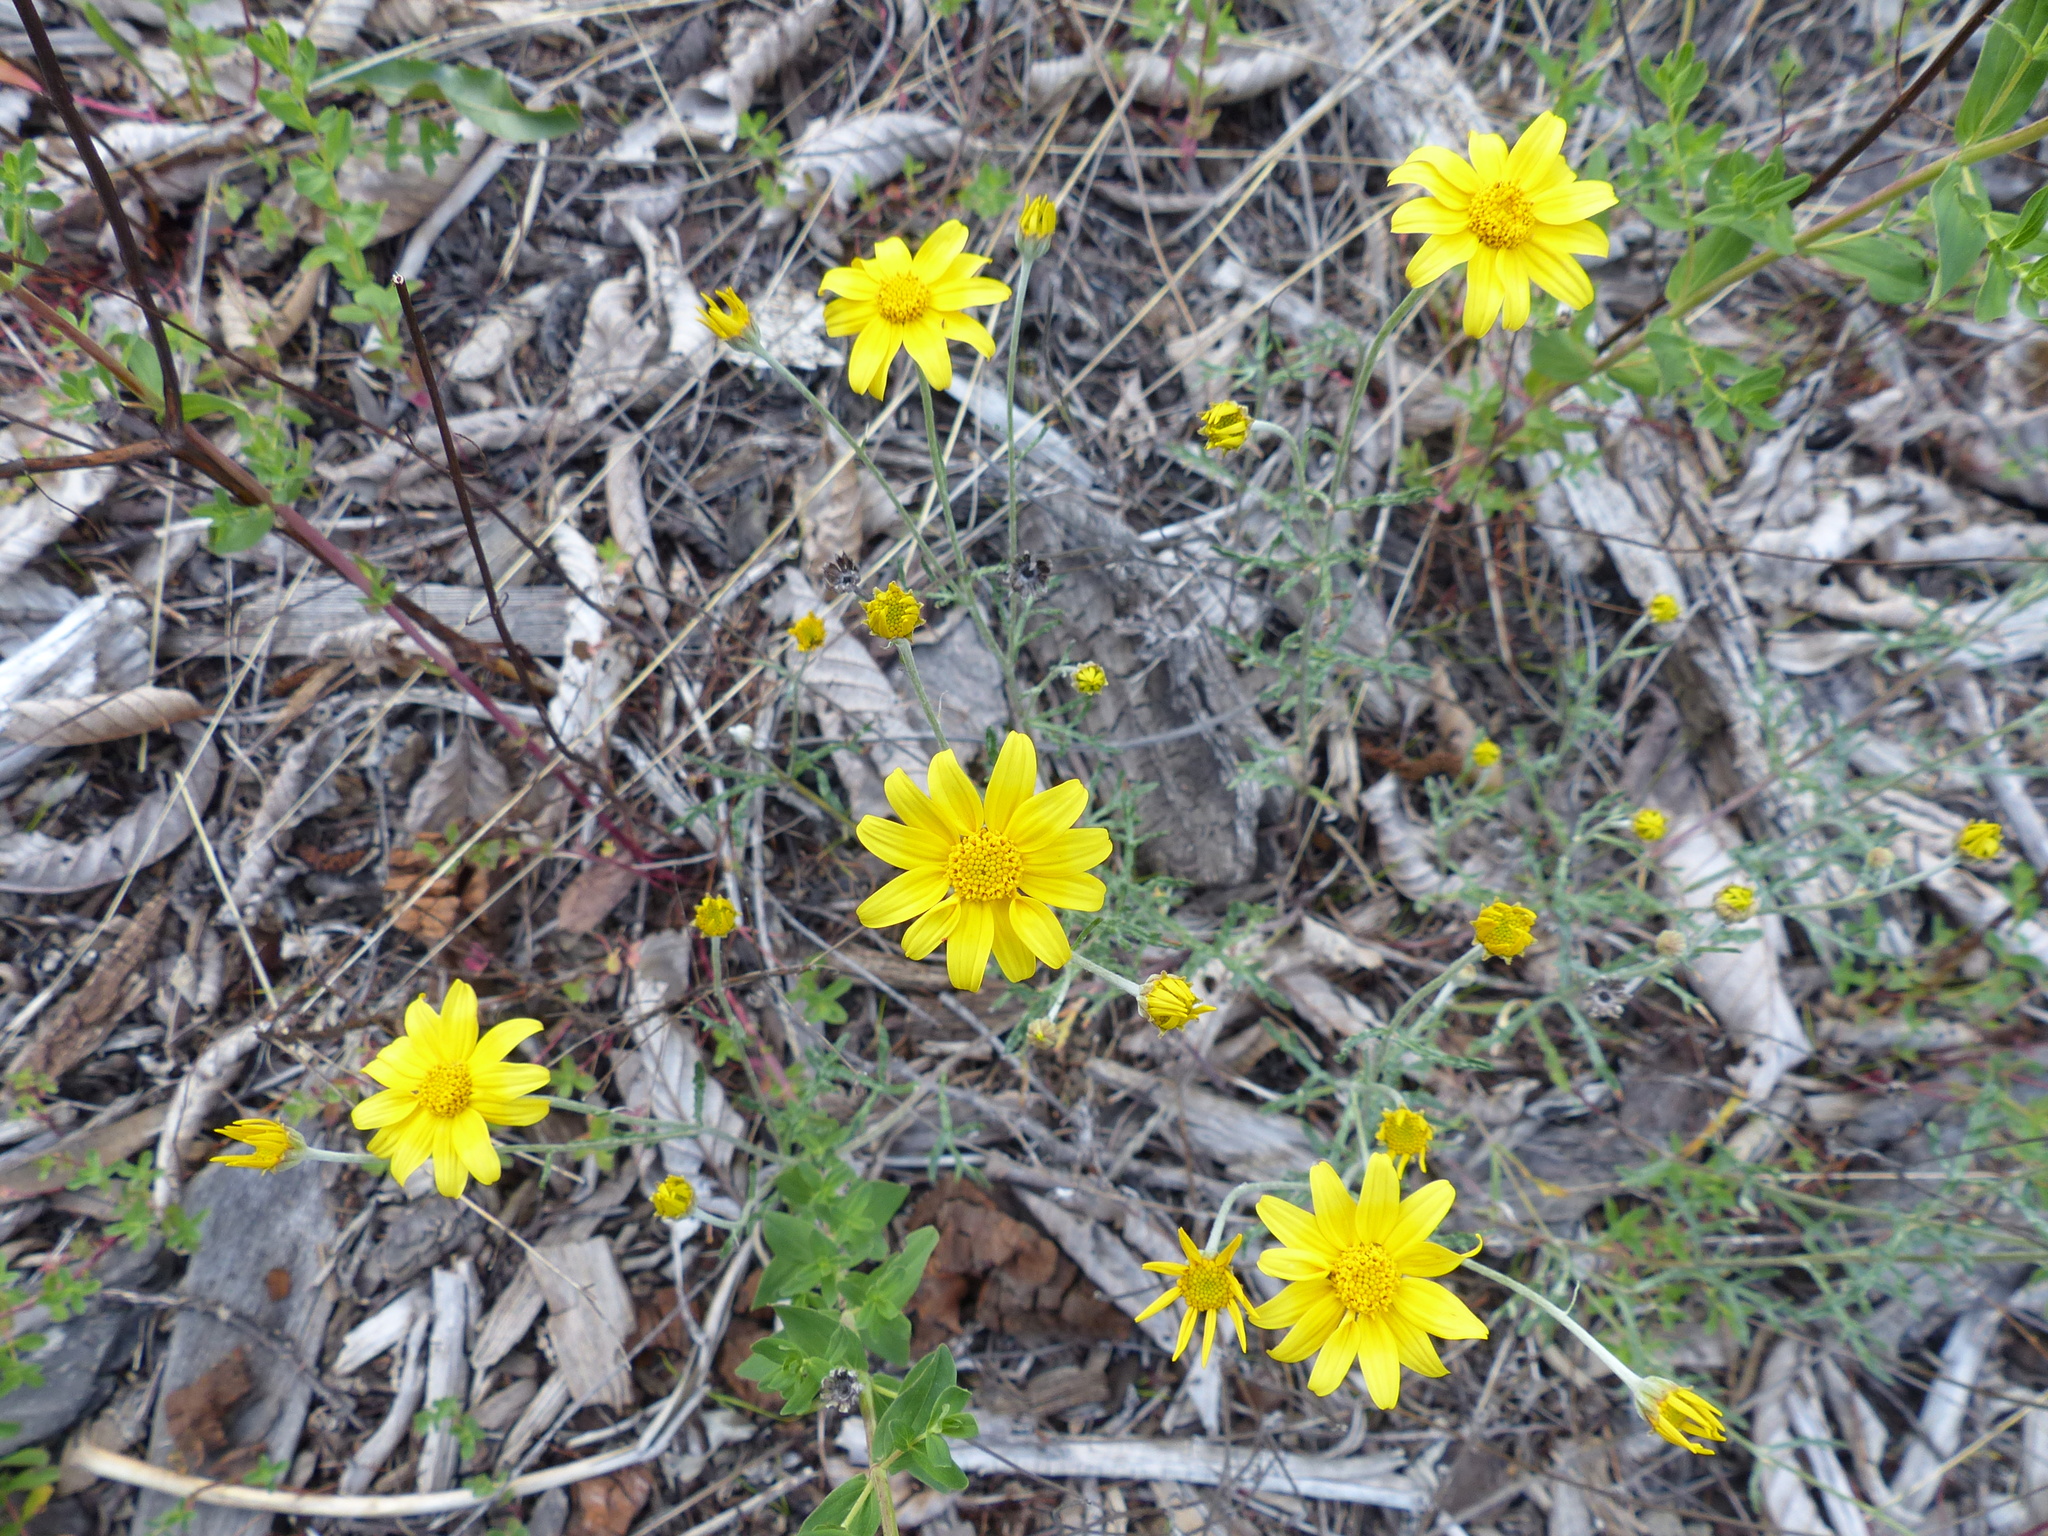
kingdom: Plantae
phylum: Tracheophyta
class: Magnoliopsida
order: Asterales
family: Asteraceae
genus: Eriophyllum
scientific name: Eriophyllum lanatum
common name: Common woolly-sunflower
